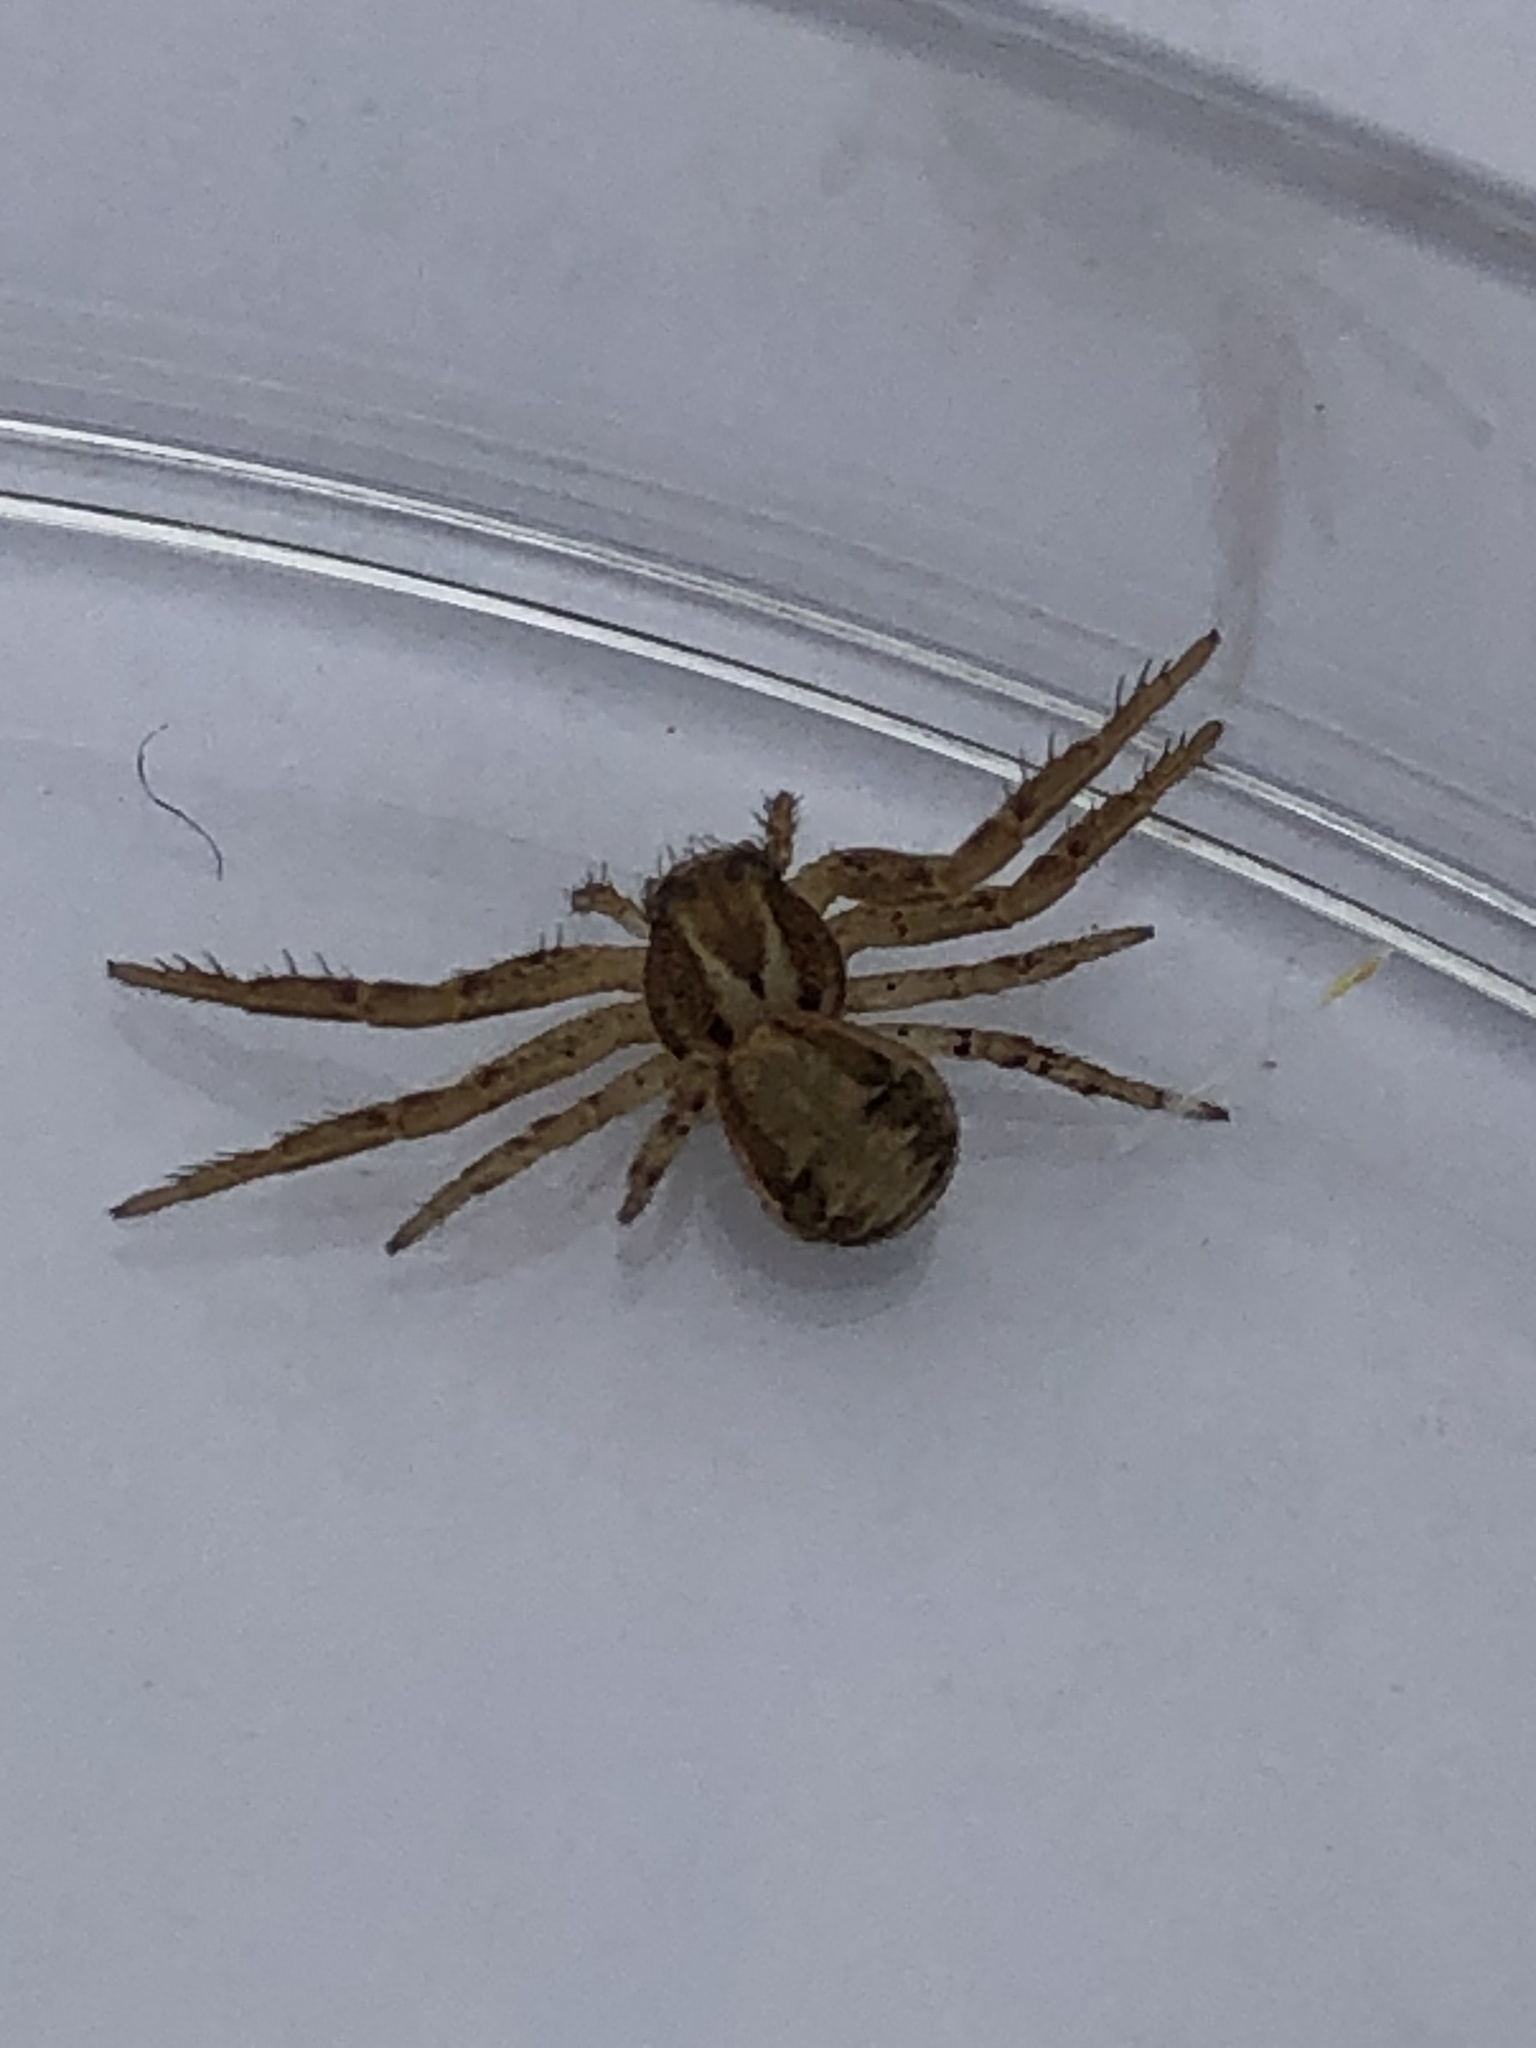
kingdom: Animalia
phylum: Arthropoda
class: Arachnida
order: Araneae
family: Thomisidae
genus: Xysticus
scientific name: Xysticus
